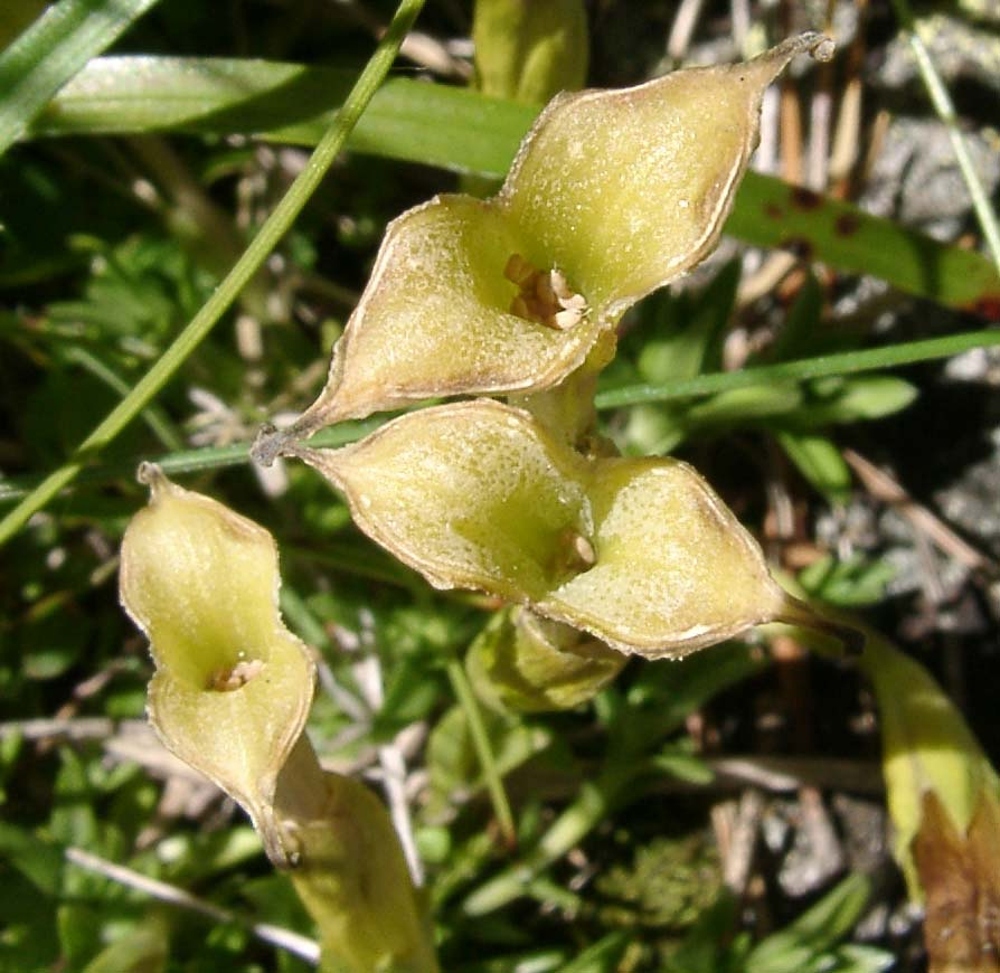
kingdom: Plantae
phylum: Tracheophyta
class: Magnoliopsida
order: Gentianales
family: Gentianaceae
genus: Gentiana
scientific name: Gentiana pyrenaica
